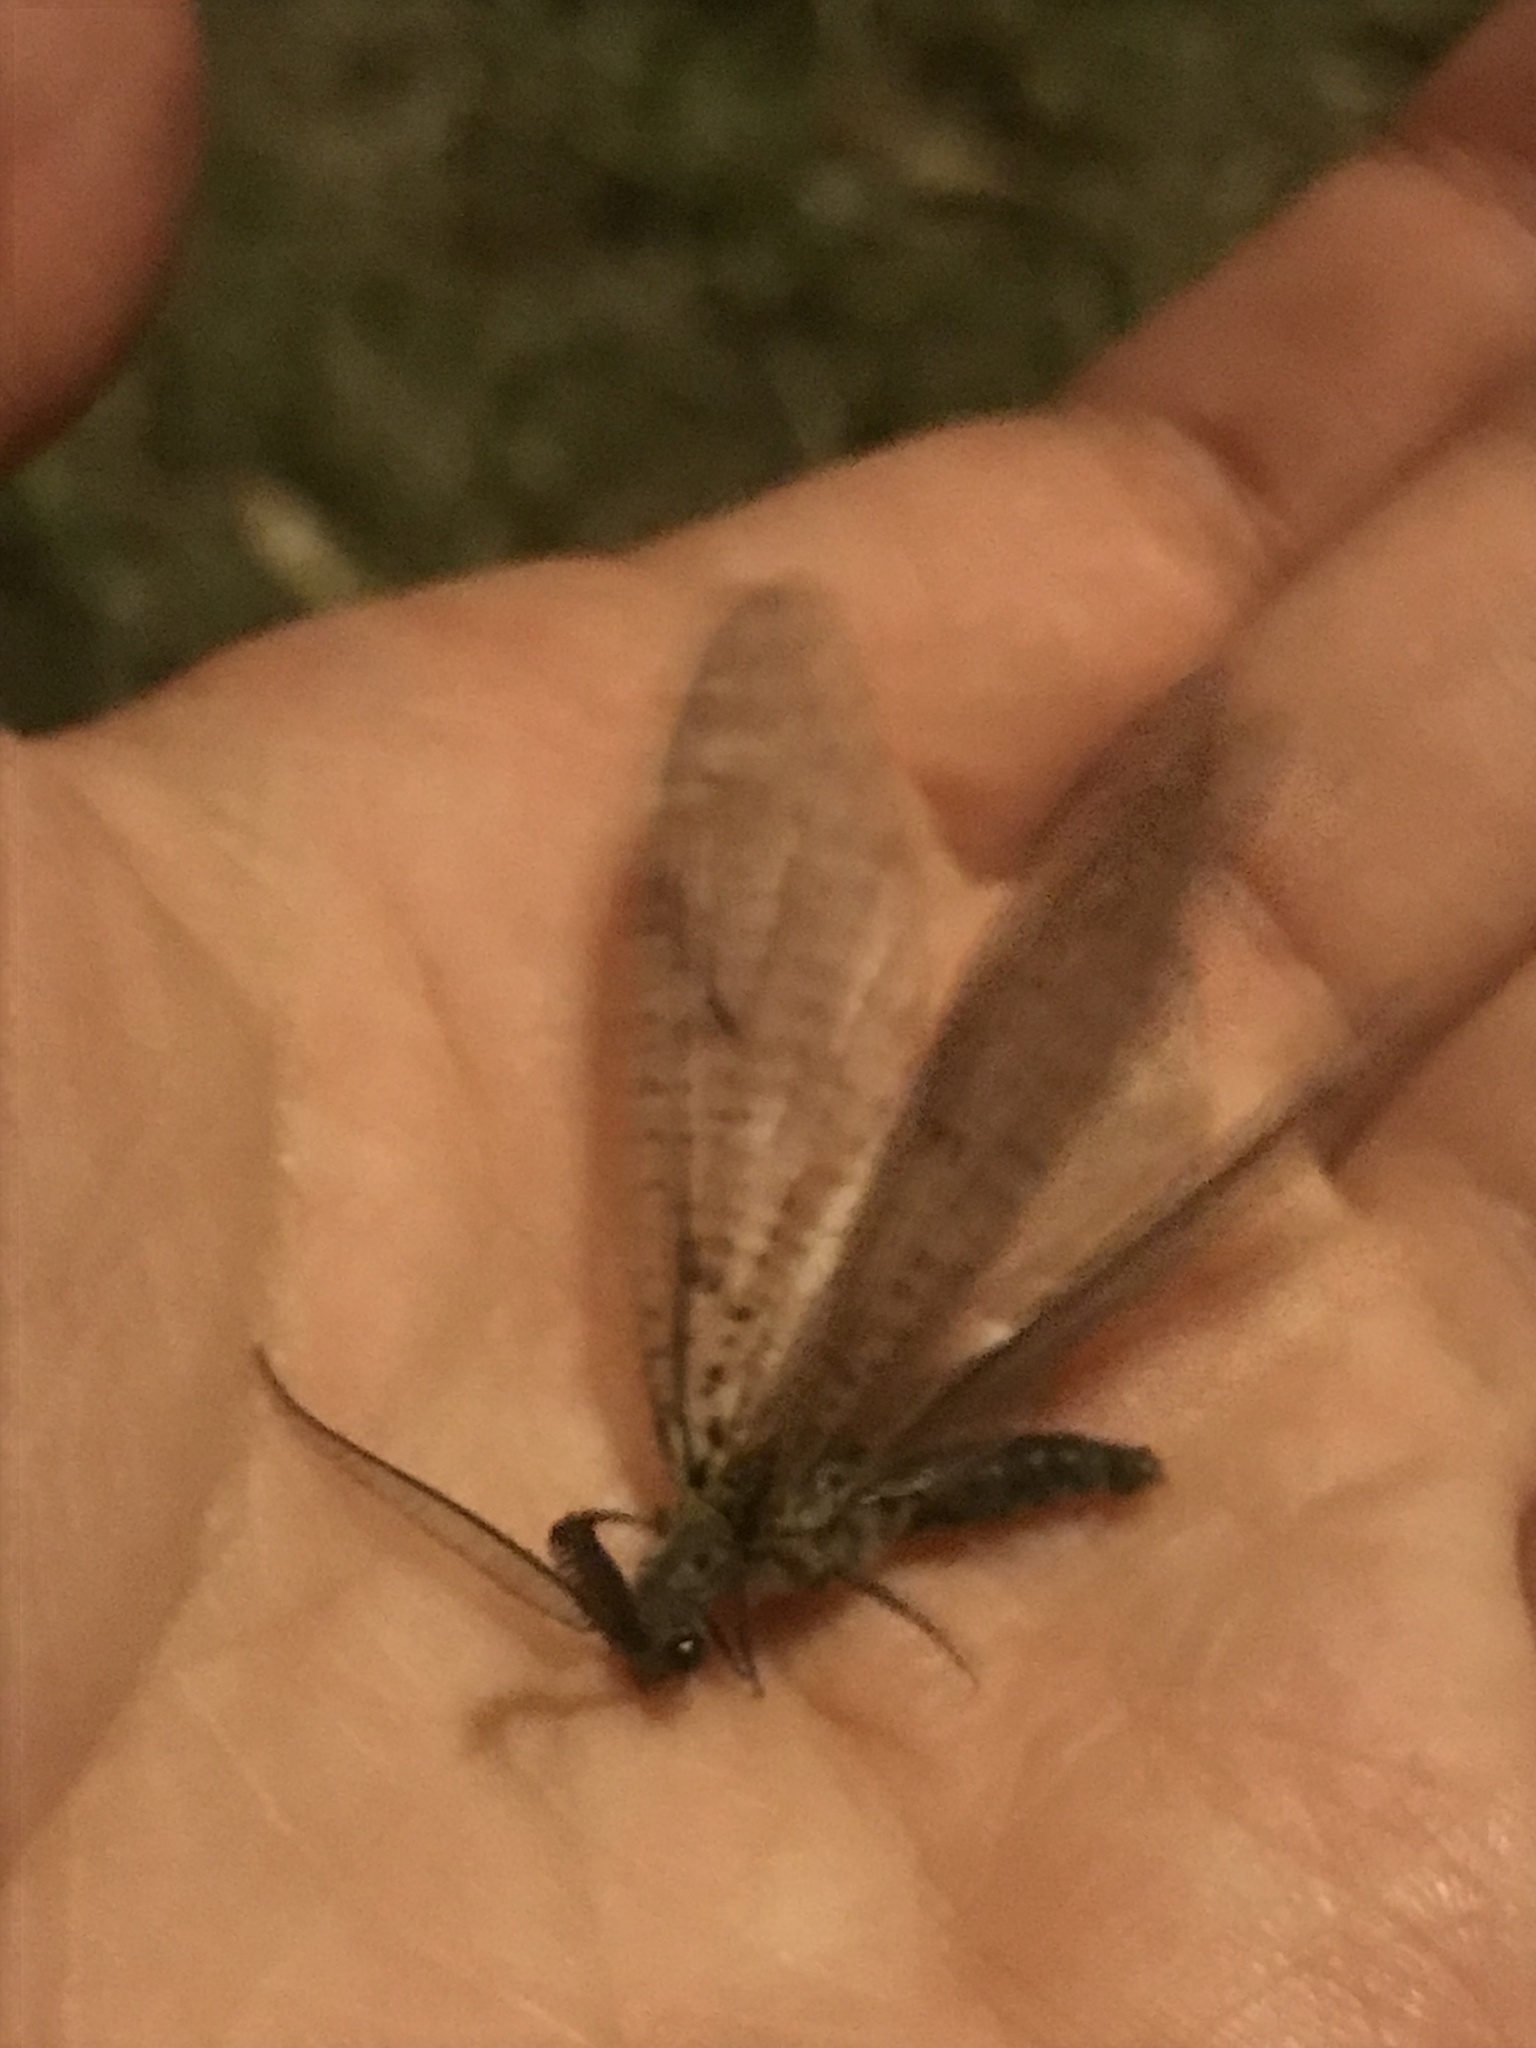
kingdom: Animalia
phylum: Arthropoda
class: Insecta
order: Megaloptera
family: Corydalidae
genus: Chauliodes
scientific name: Chauliodes rastricornis
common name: Spring fishfly
